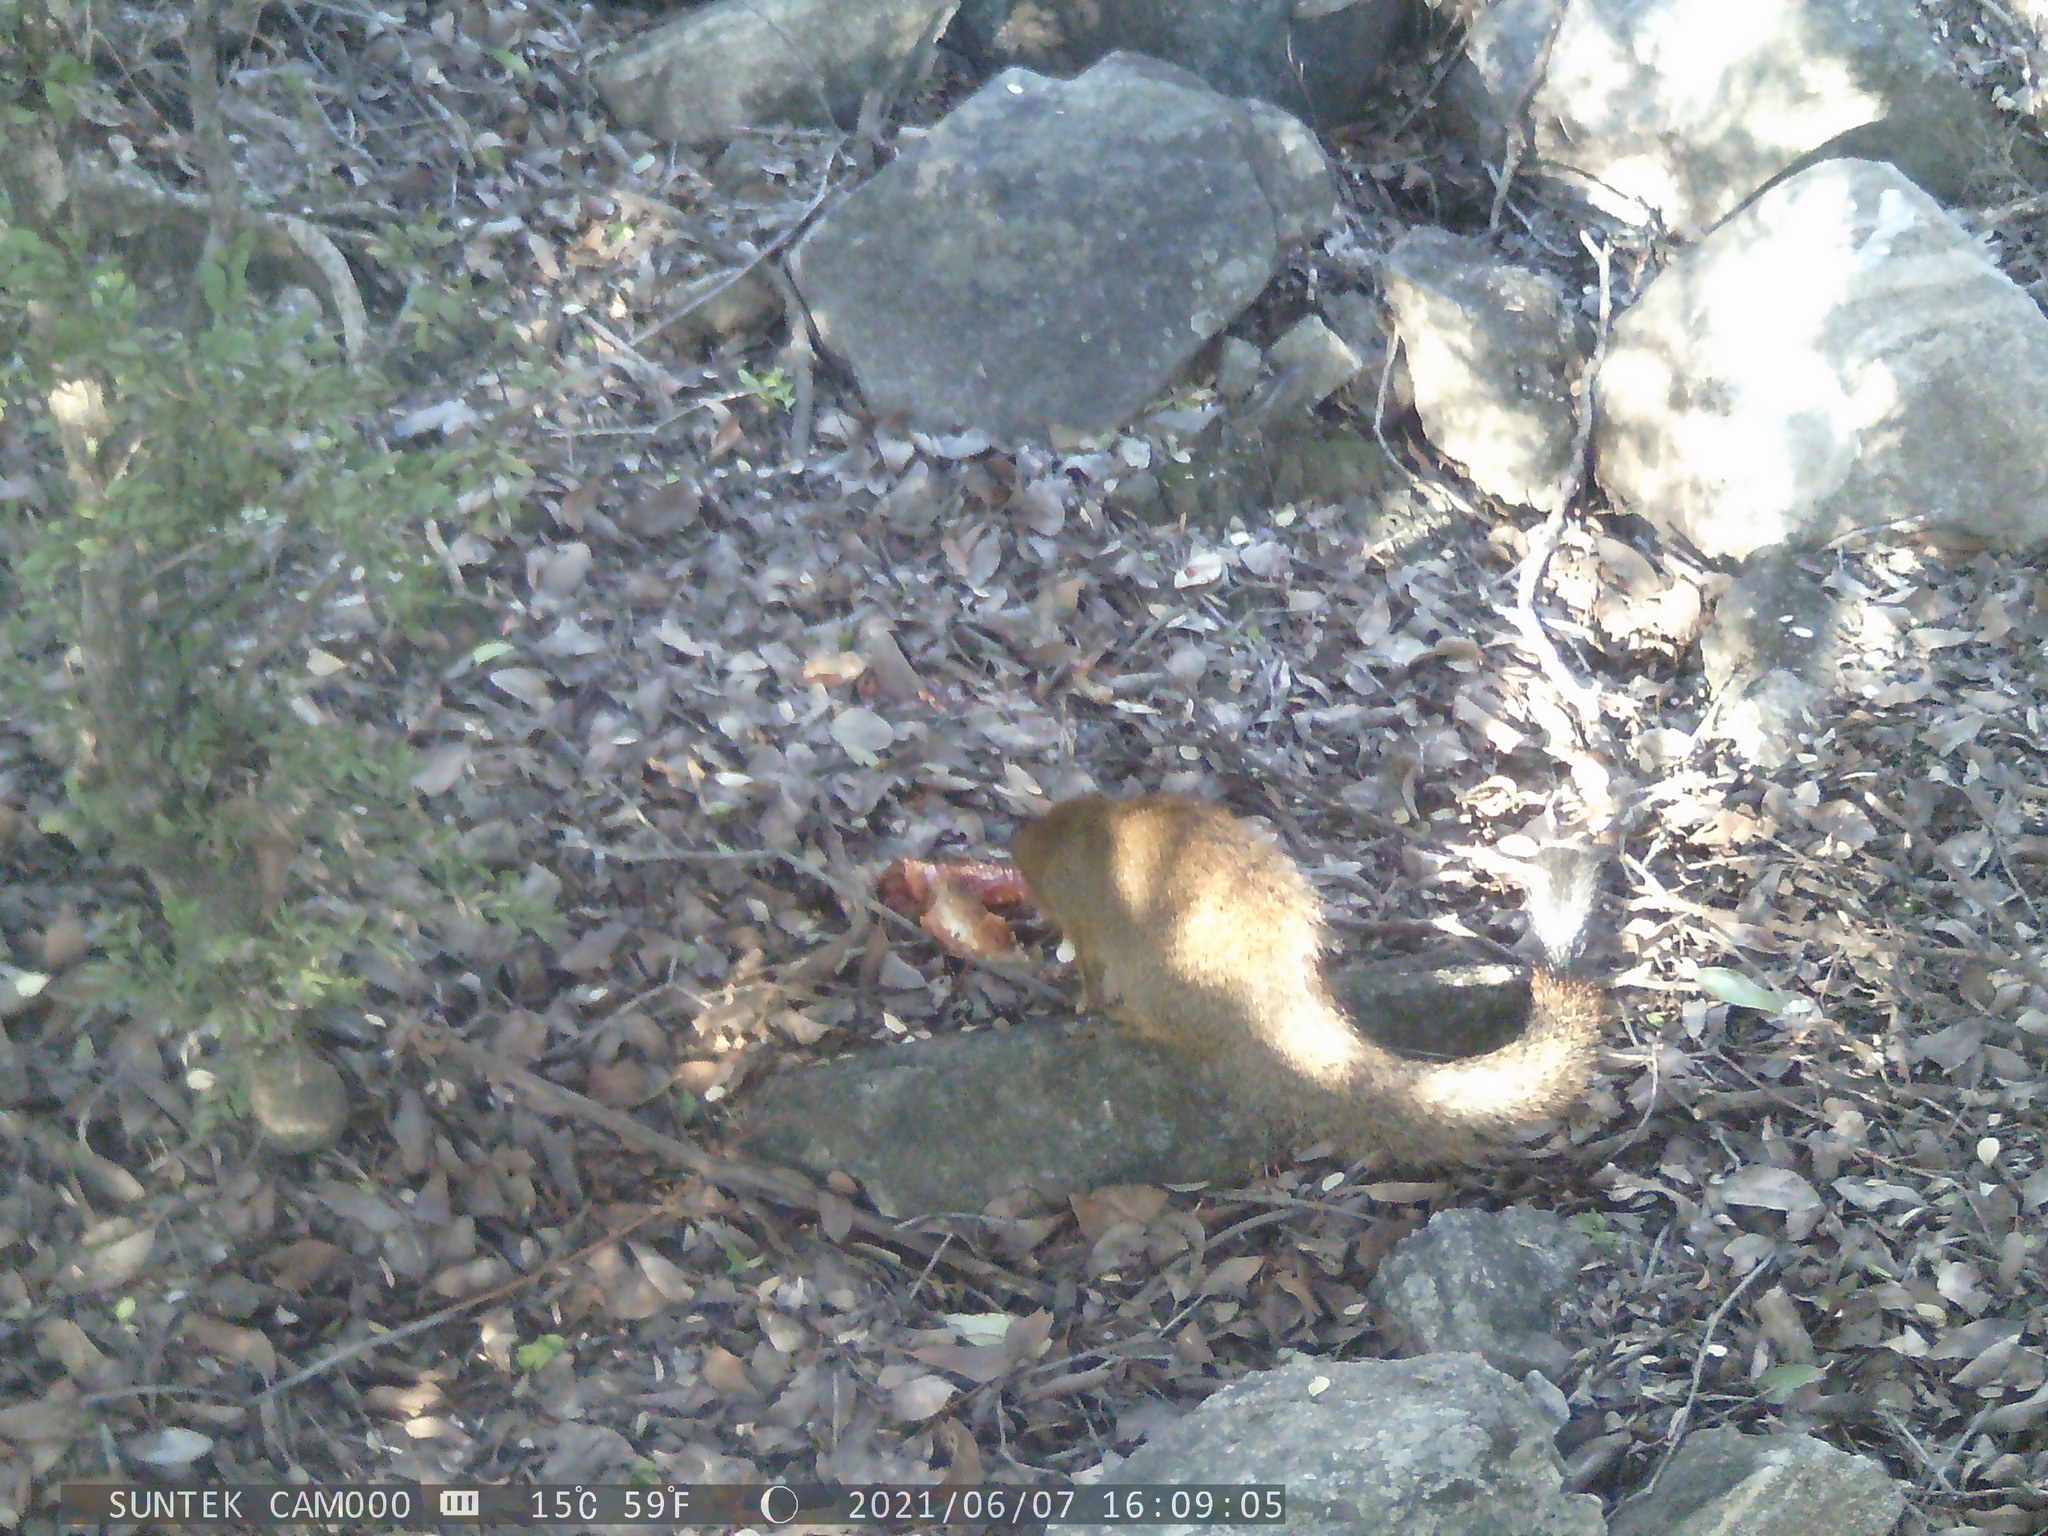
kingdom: Animalia
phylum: Chordata
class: Mammalia
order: Carnivora
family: Herpestidae
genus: Galerella
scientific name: Galerella sanguinea
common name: Slender mongoose
